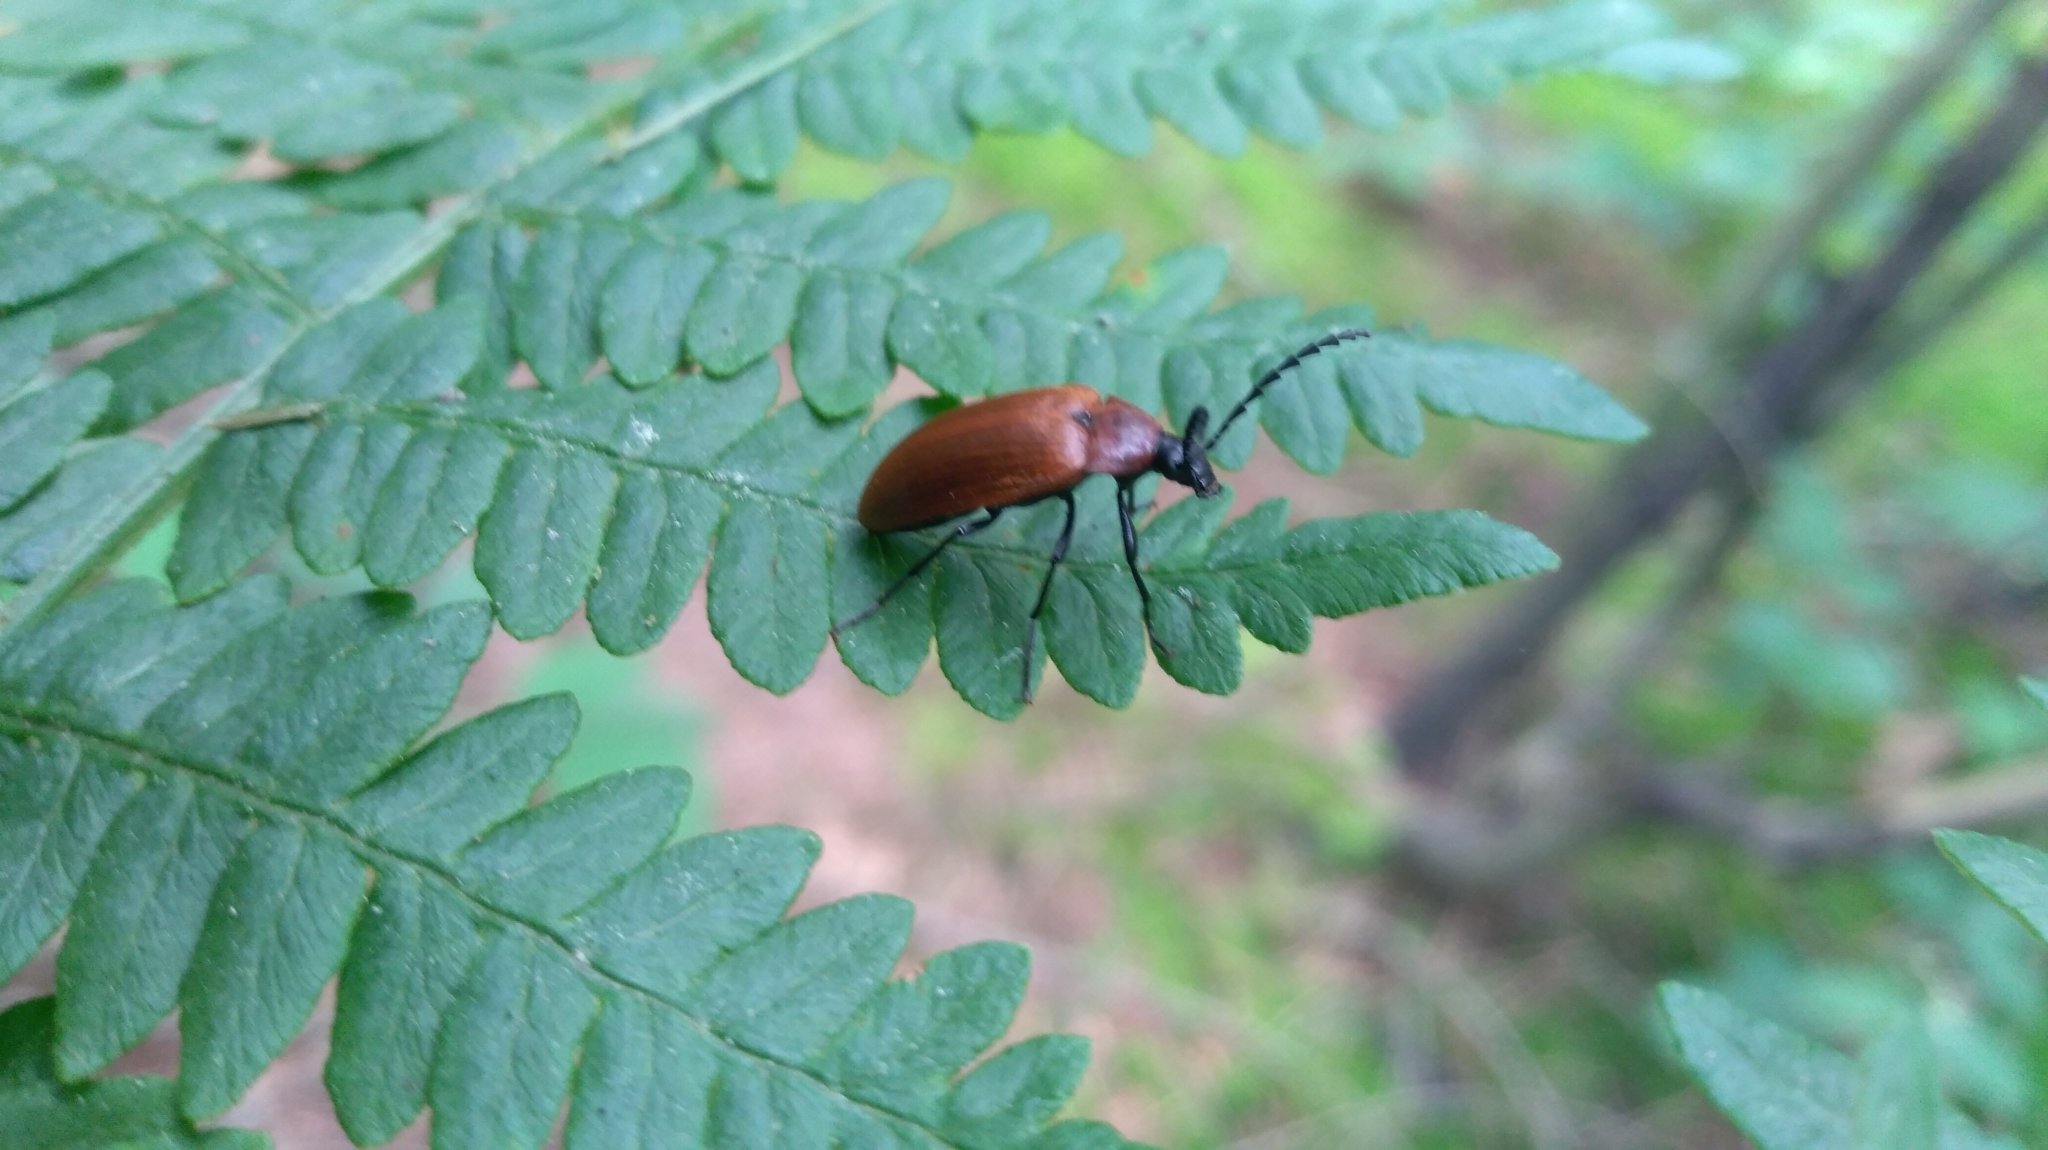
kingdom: Animalia
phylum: Arthropoda
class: Insecta
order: Coleoptera
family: Tenebrionidae
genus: Pseudocistela
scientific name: Pseudocistela ceramboides
